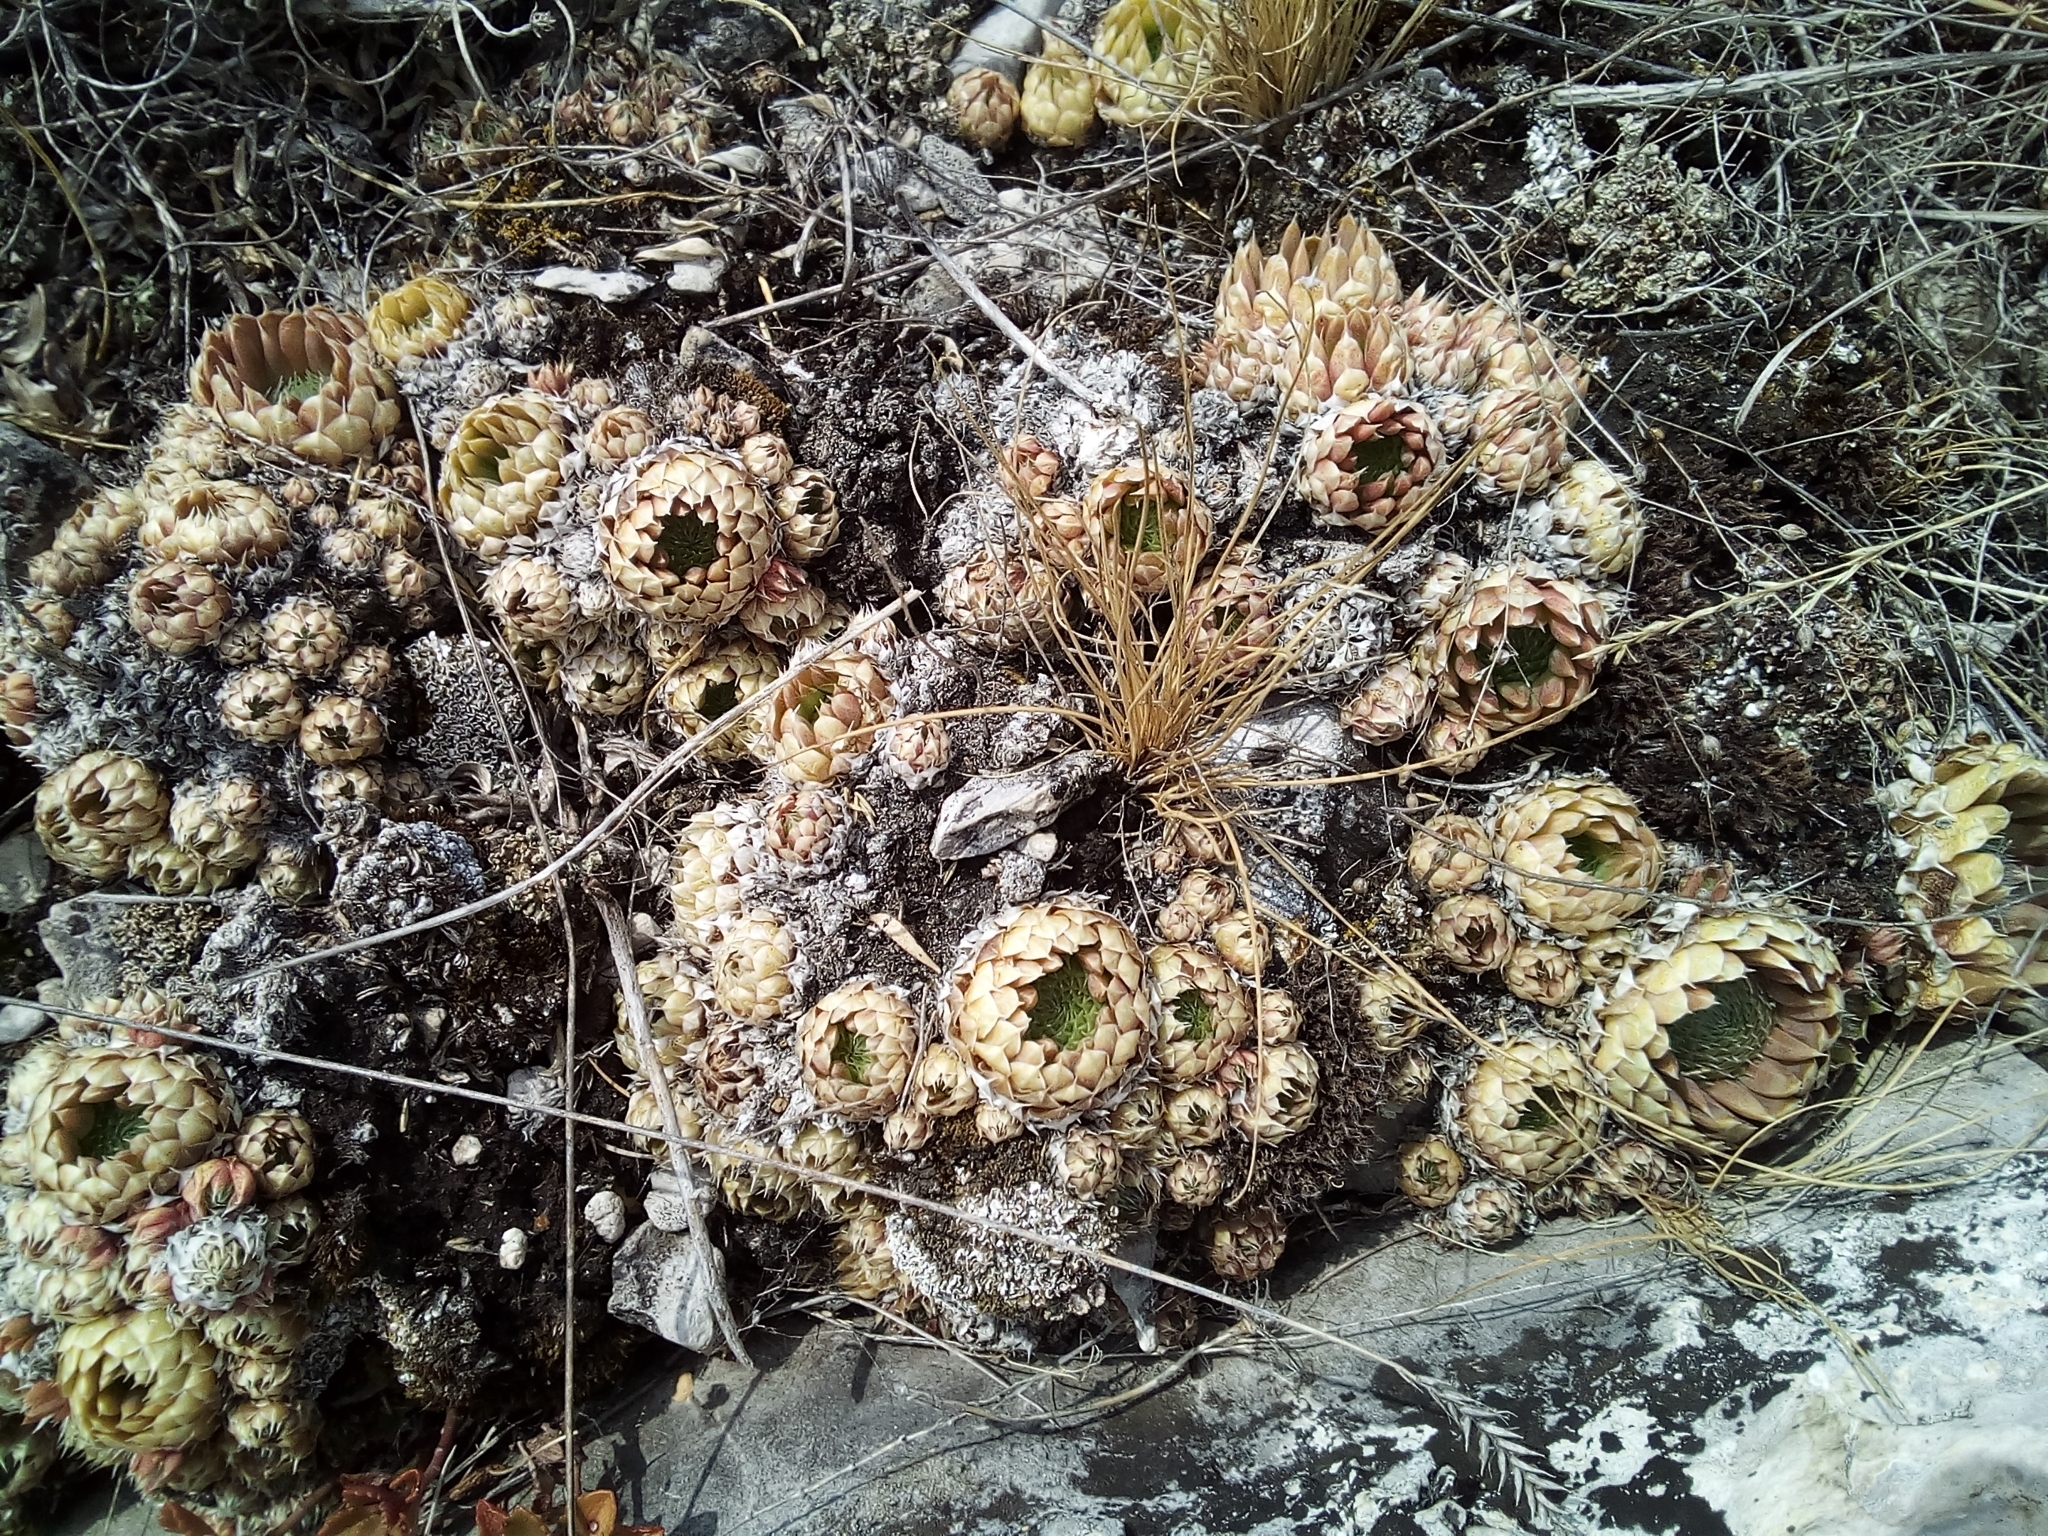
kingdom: Plantae
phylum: Tracheophyta
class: Magnoliopsida
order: Saxifragales
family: Crassulaceae
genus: Orostachys
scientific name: Orostachys spinosa
